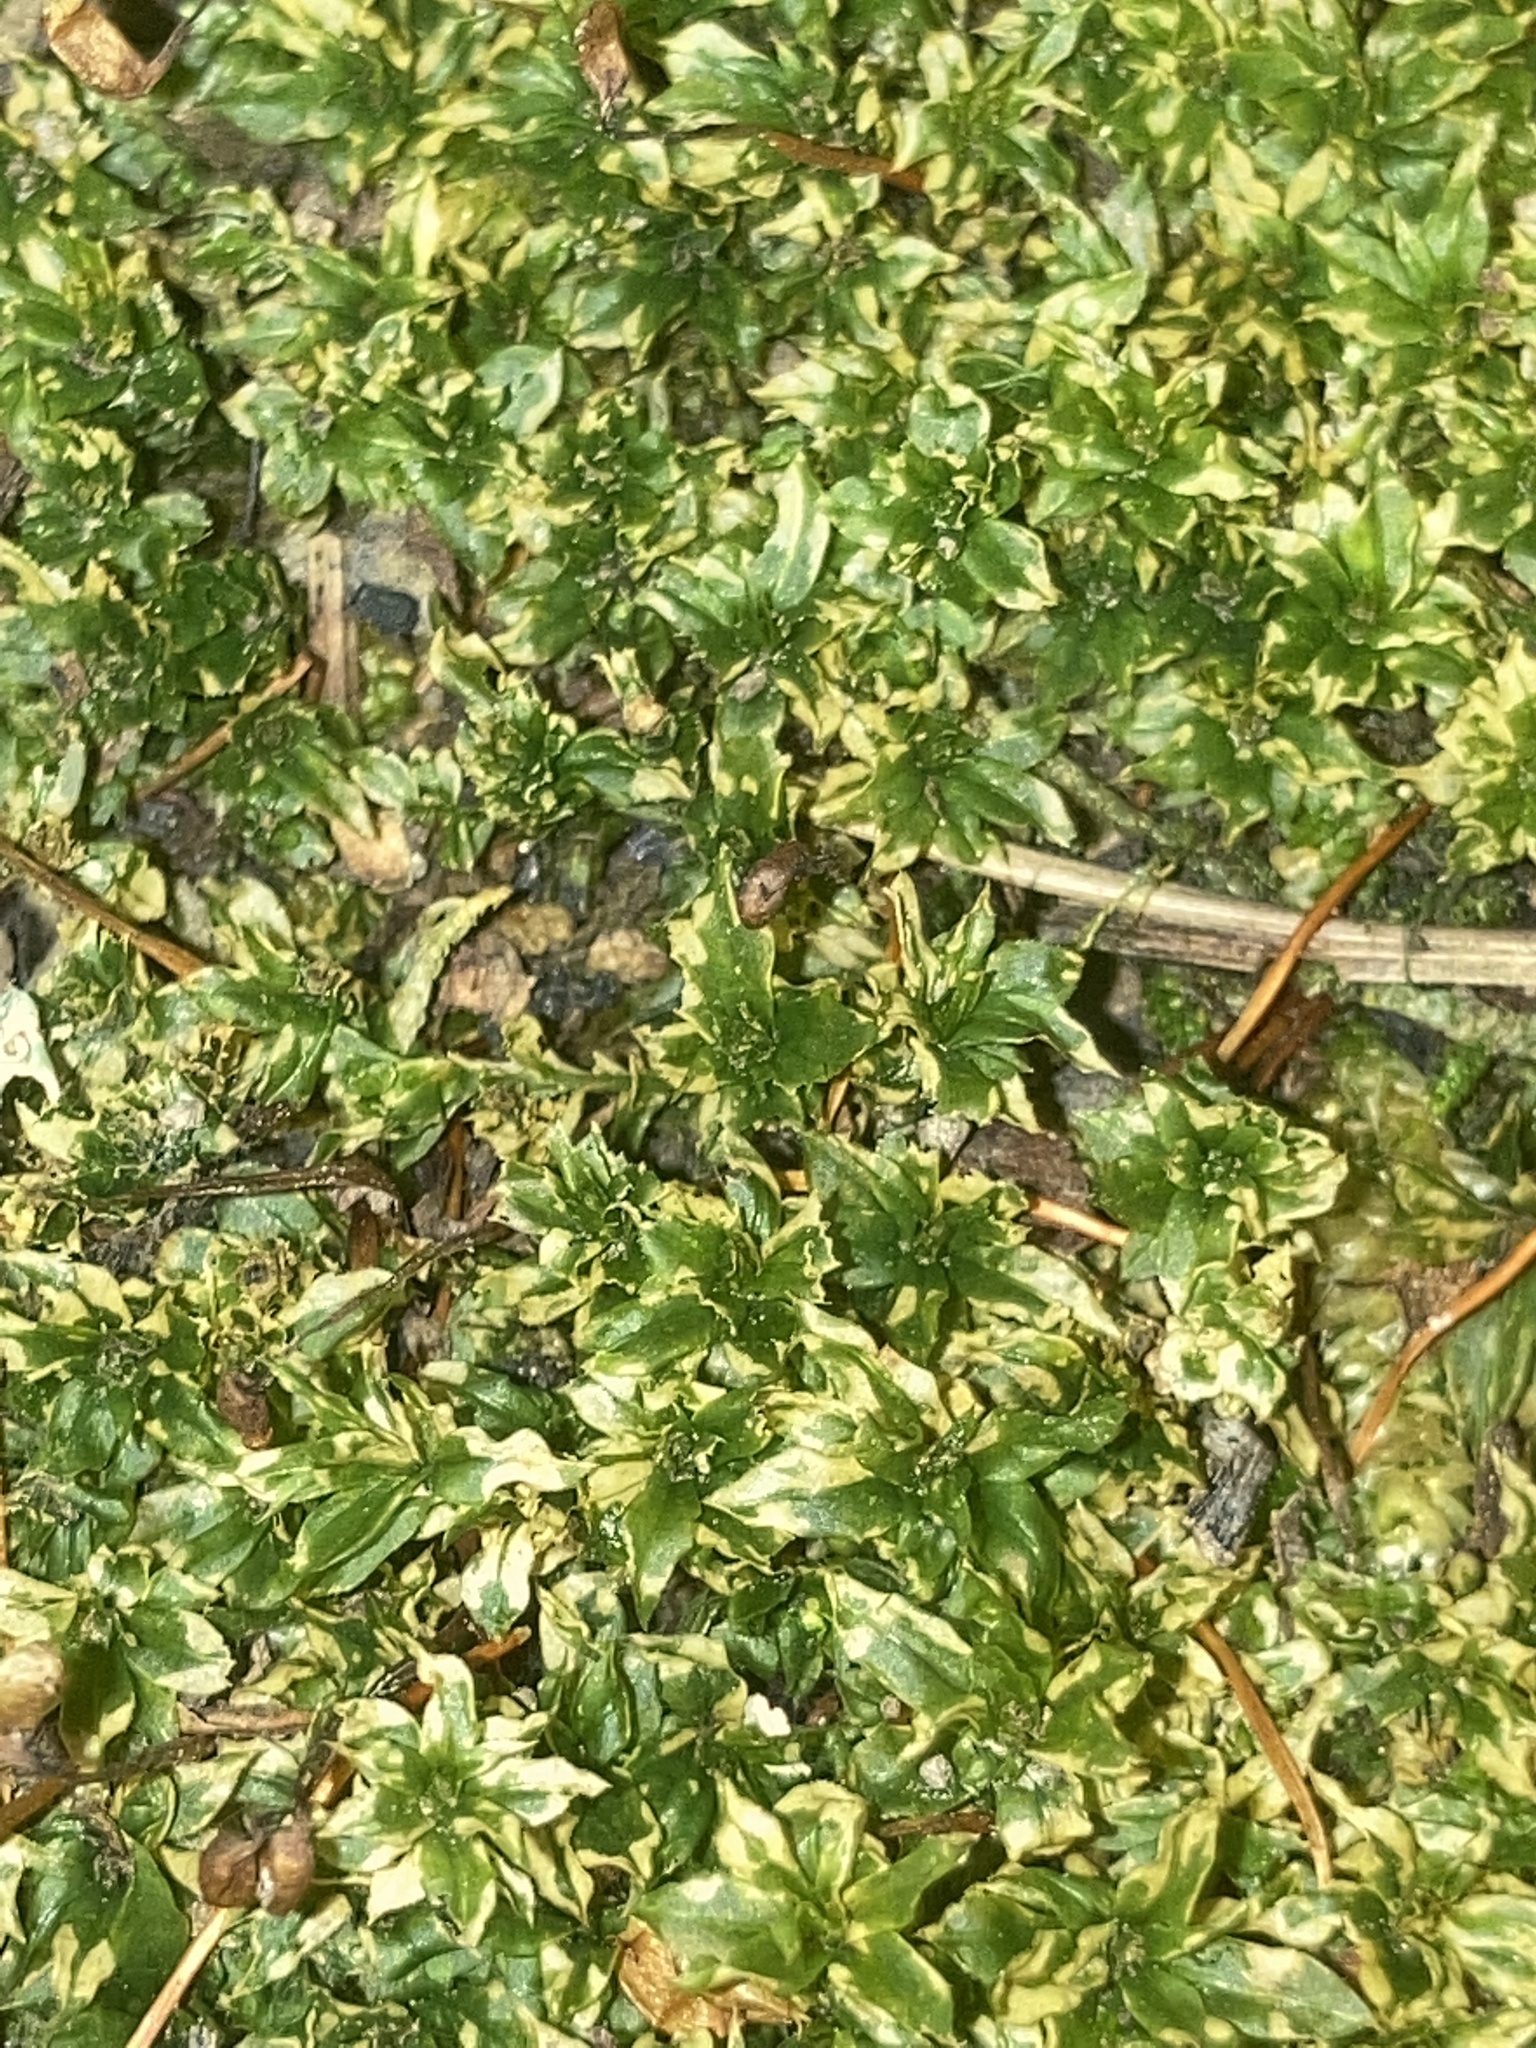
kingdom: Plantae
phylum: Bryophyta
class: Bryopsida
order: Bryales
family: Mniaceae
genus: Plagiomnium
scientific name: Plagiomnium ciliare
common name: Toothed leafy moss
